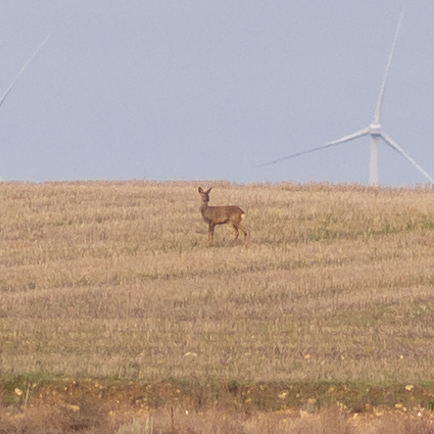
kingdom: Animalia
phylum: Chordata
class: Mammalia
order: Artiodactyla
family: Cervidae
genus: Capreolus
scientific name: Capreolus capreolus
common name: Western roe deer
